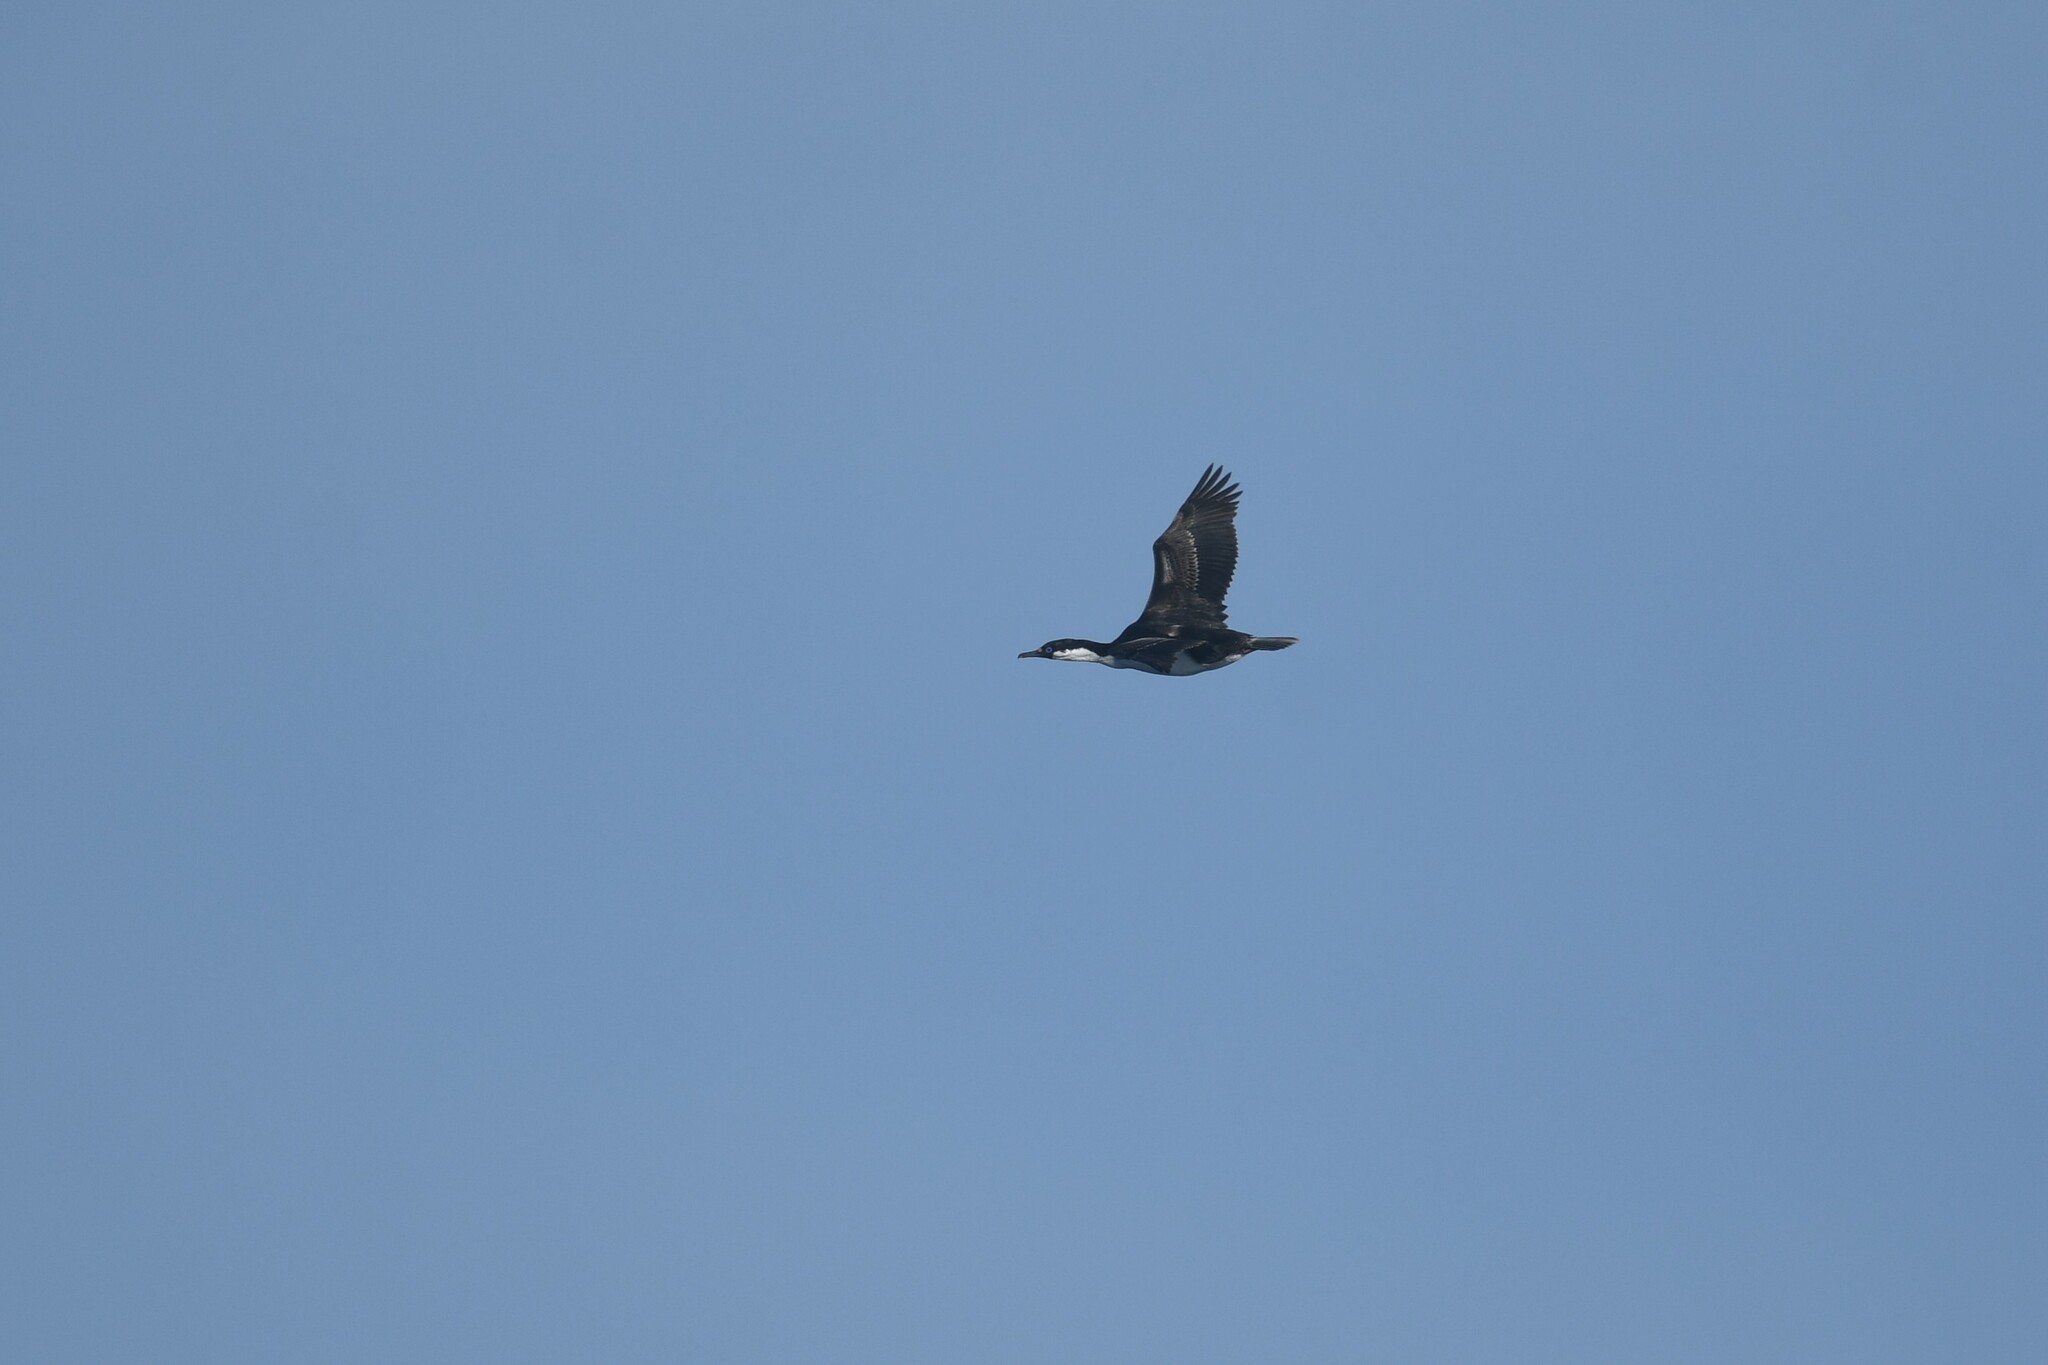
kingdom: Animalia
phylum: Chordata
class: Aves
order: Suliformes
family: Phalacrocoracidae
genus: Leucocarbo
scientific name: Leucocarbo atriceps
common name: Imperial shag
